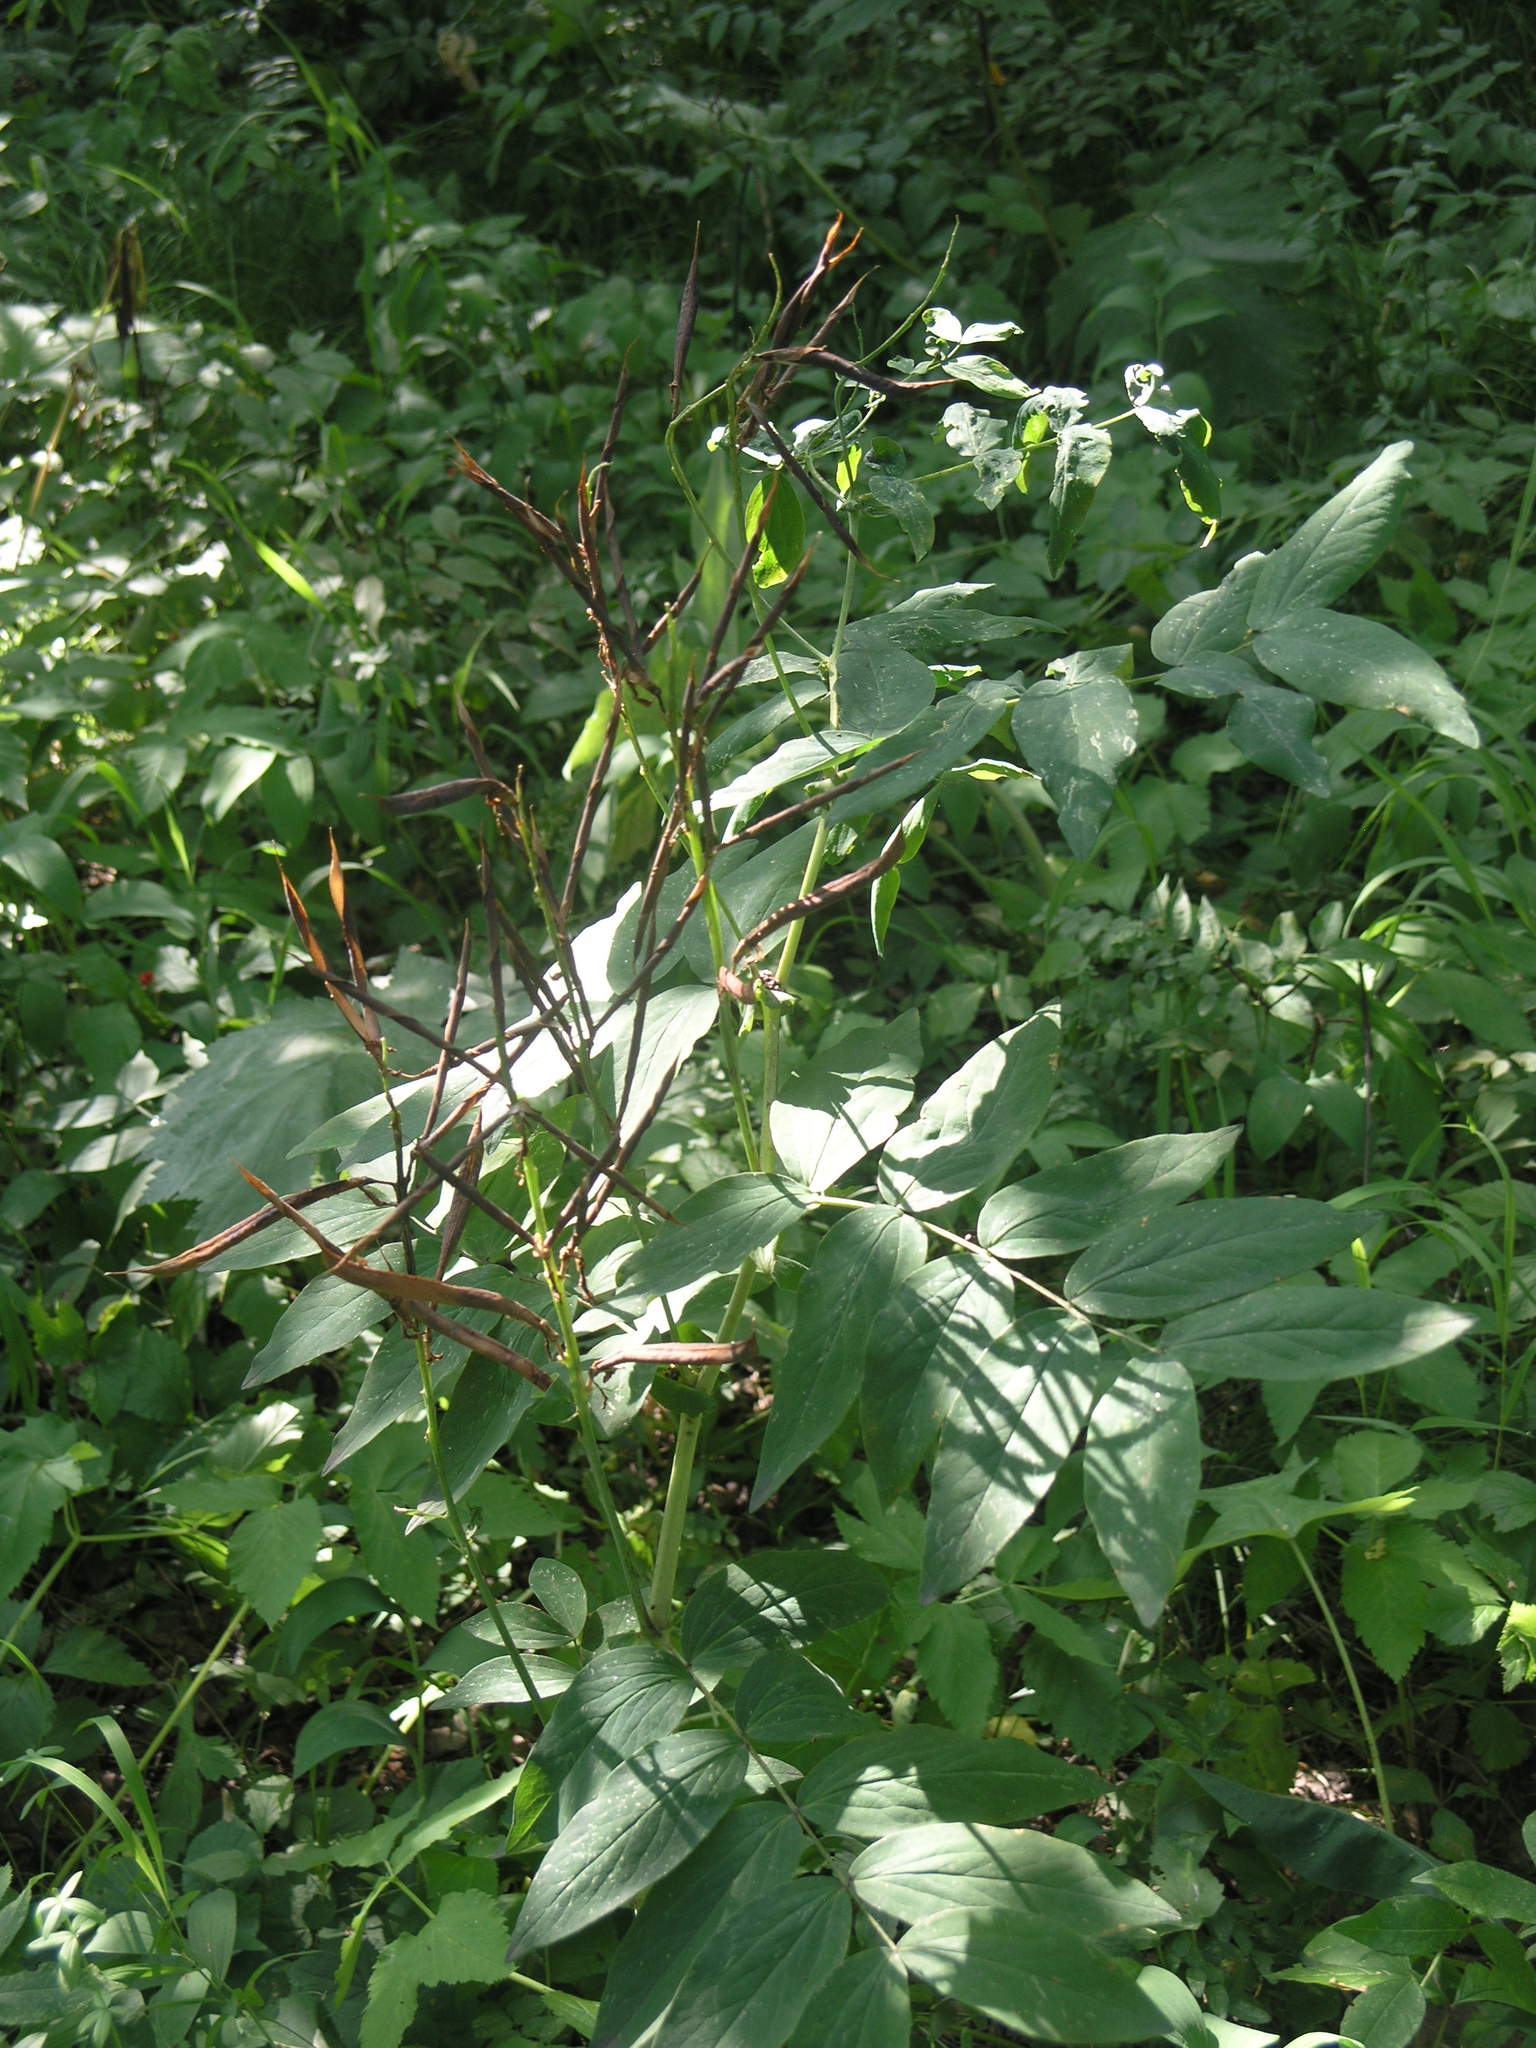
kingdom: Plantae
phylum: Tracheophyta
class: Magnoliopsida
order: Fabales
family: Fabaceae
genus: Lathyrus
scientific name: Lathyrus pisiformis
